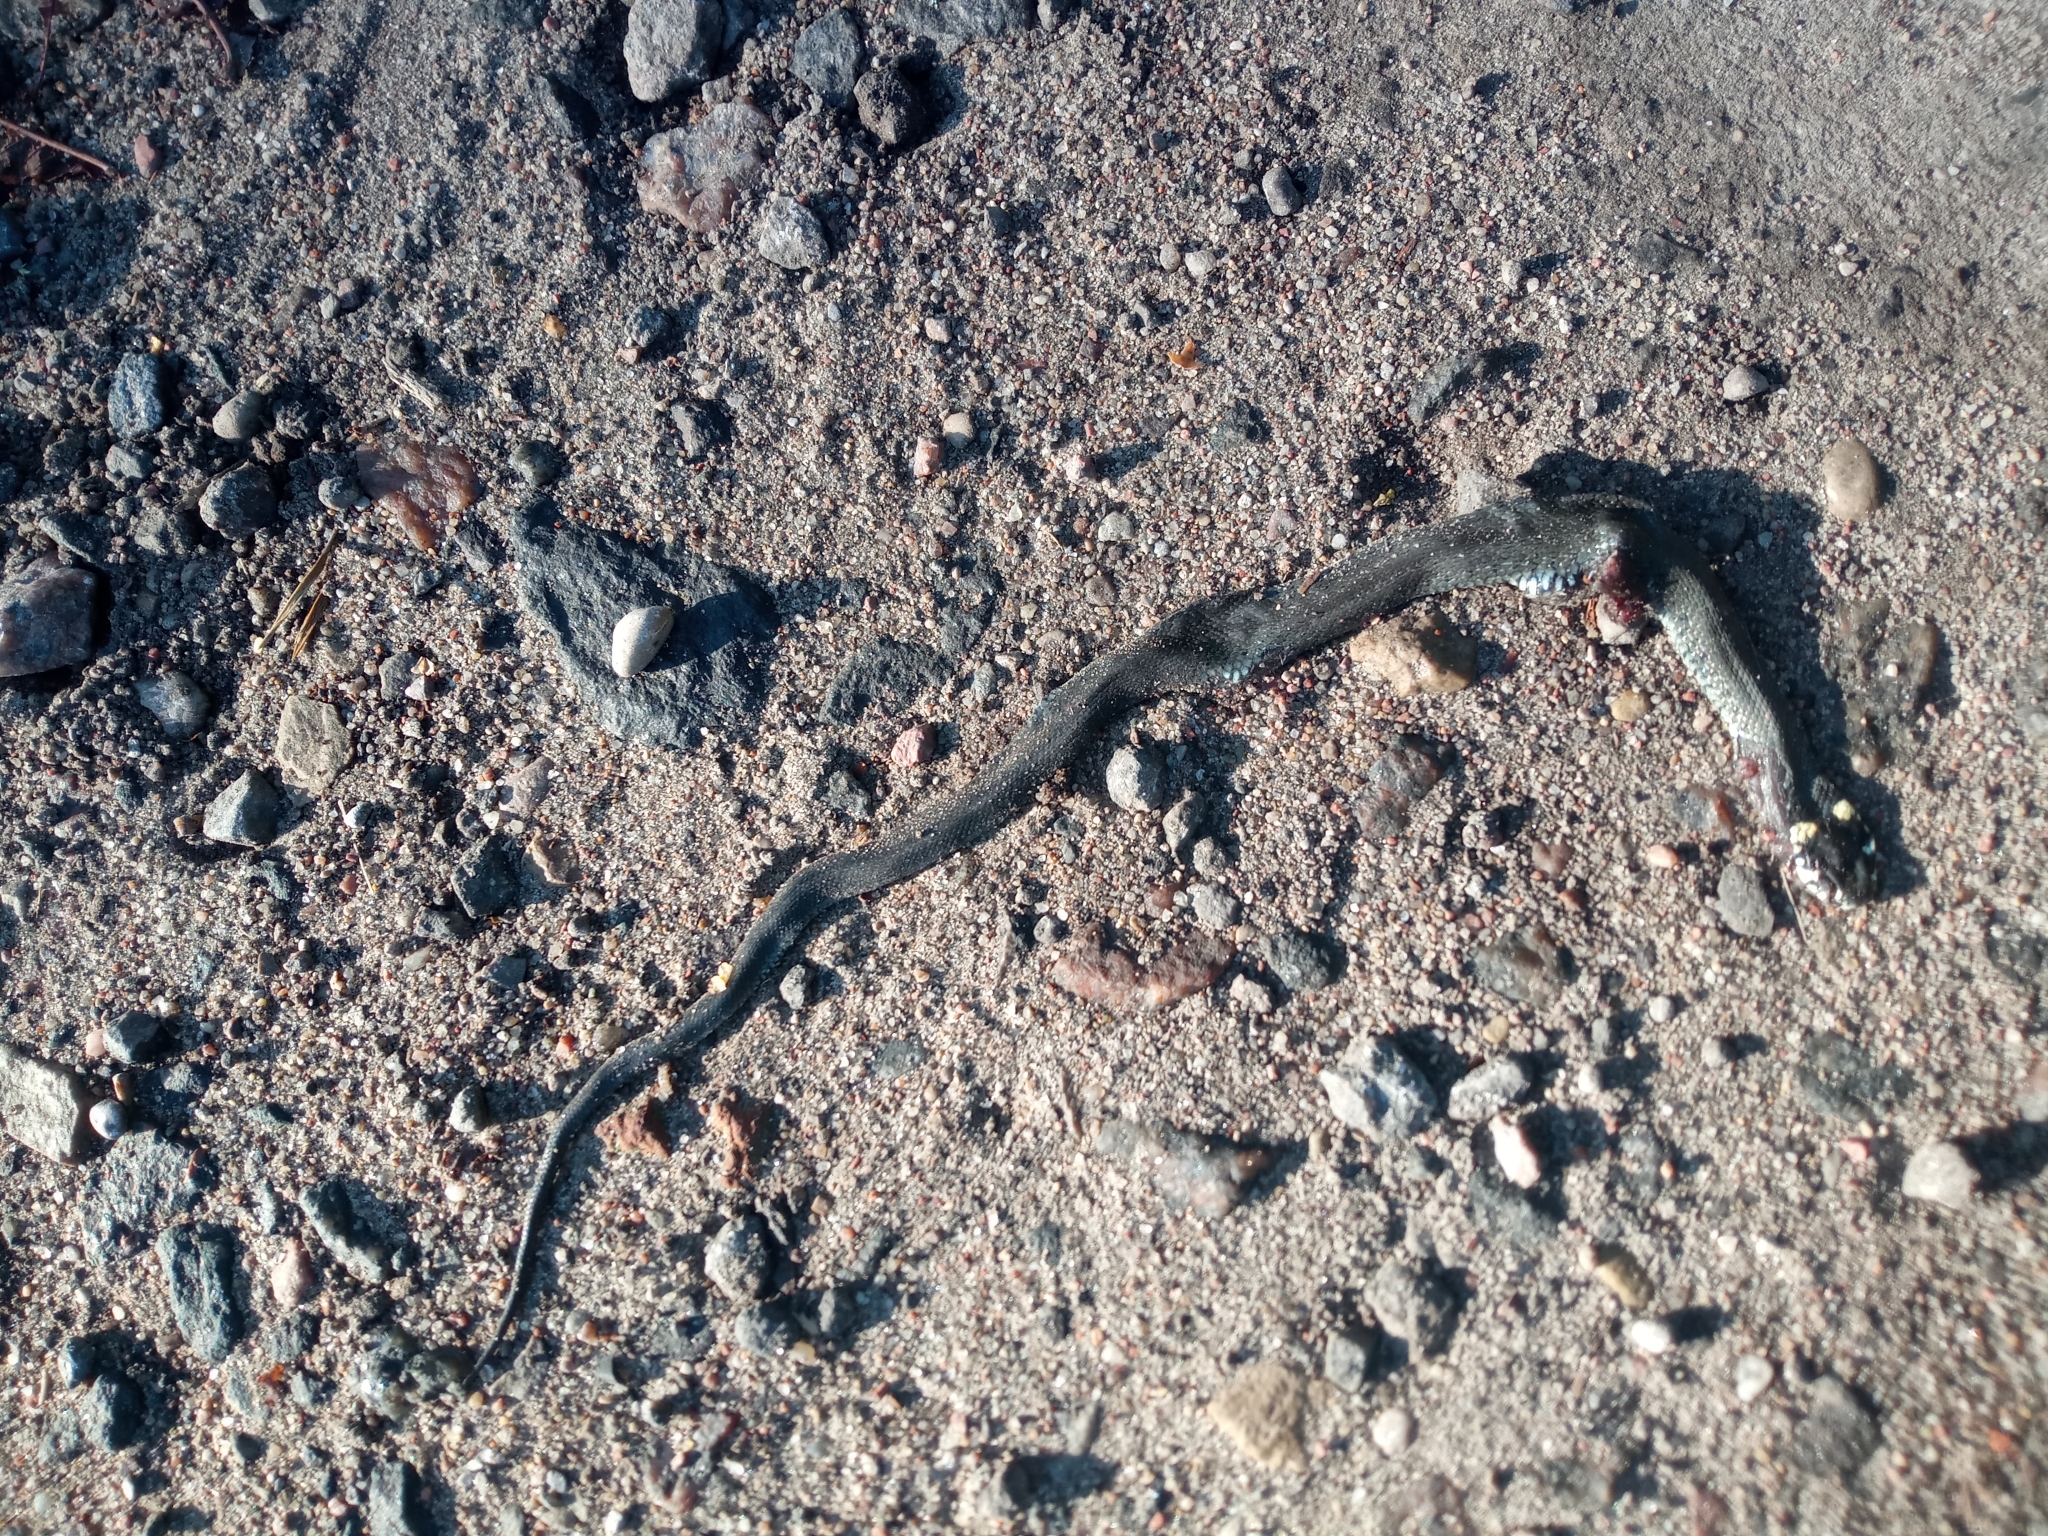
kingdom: Animalia
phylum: Chordata
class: Squamata
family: Colubridae
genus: Natrix
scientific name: Natrix natrix
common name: Grass snake
